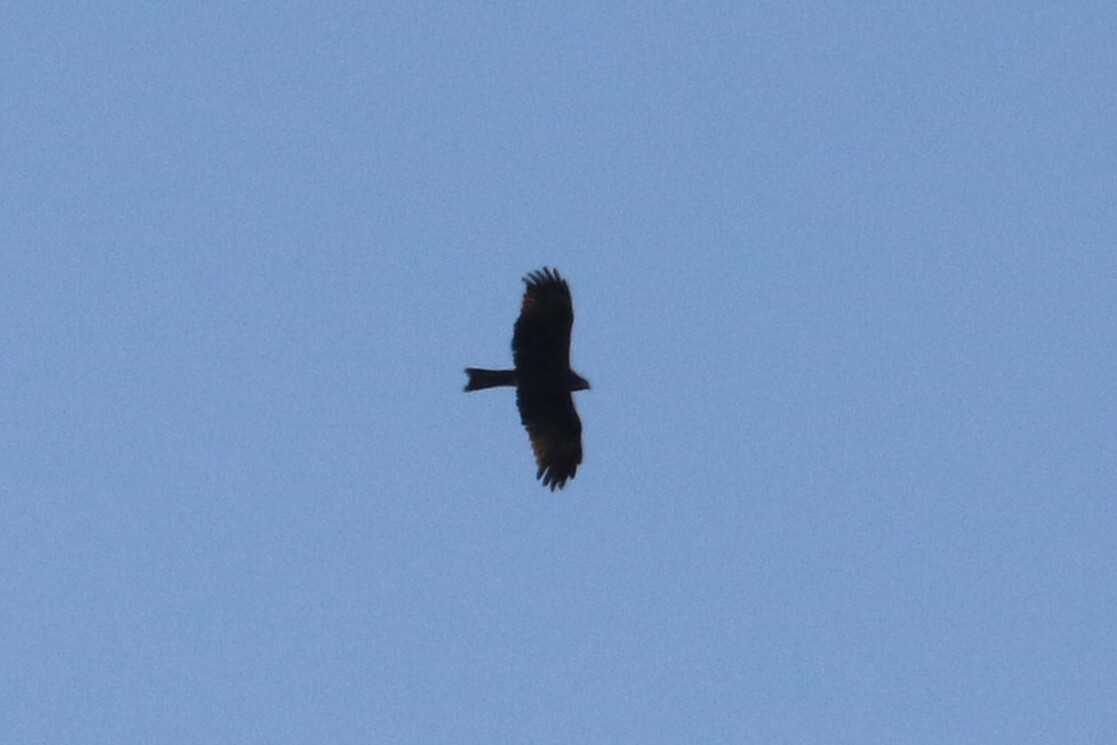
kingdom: Animalia
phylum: Chordata
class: Aves
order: Accipitriformes
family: Accipitridae
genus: Milvus
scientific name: Milvus migrans
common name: Black kite
